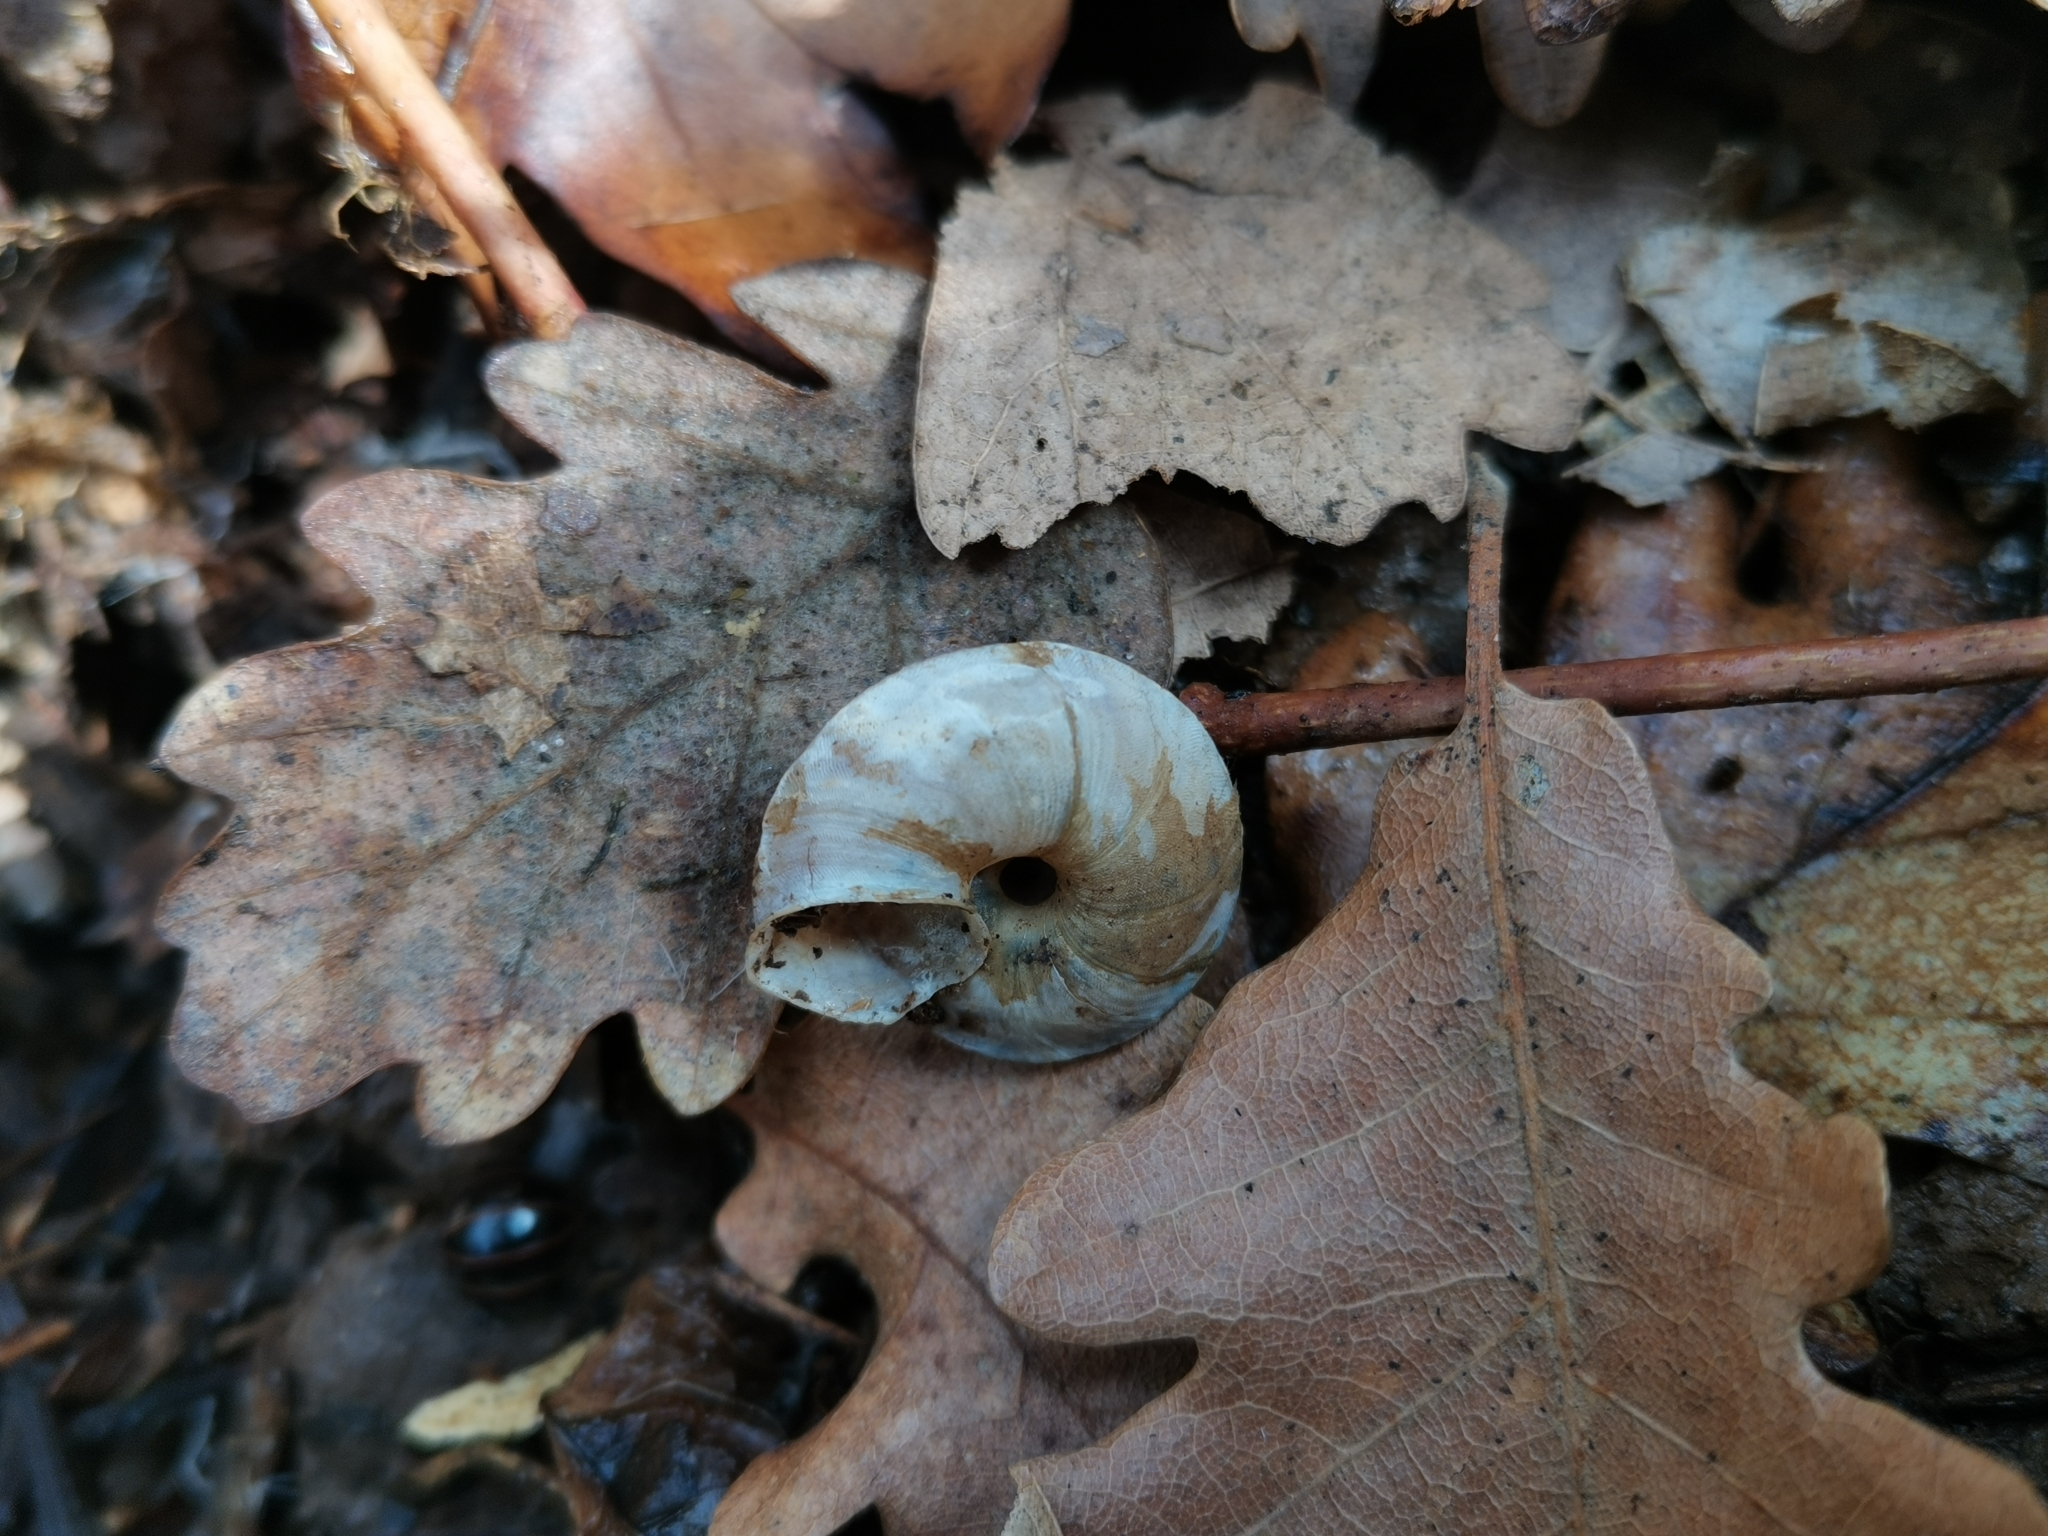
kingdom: Animalia
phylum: Mollusca
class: Gastropoda
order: Stylommatophora
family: Helicidae
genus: Helicigona
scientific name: Helicigona lapicida
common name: Lapidary snail
